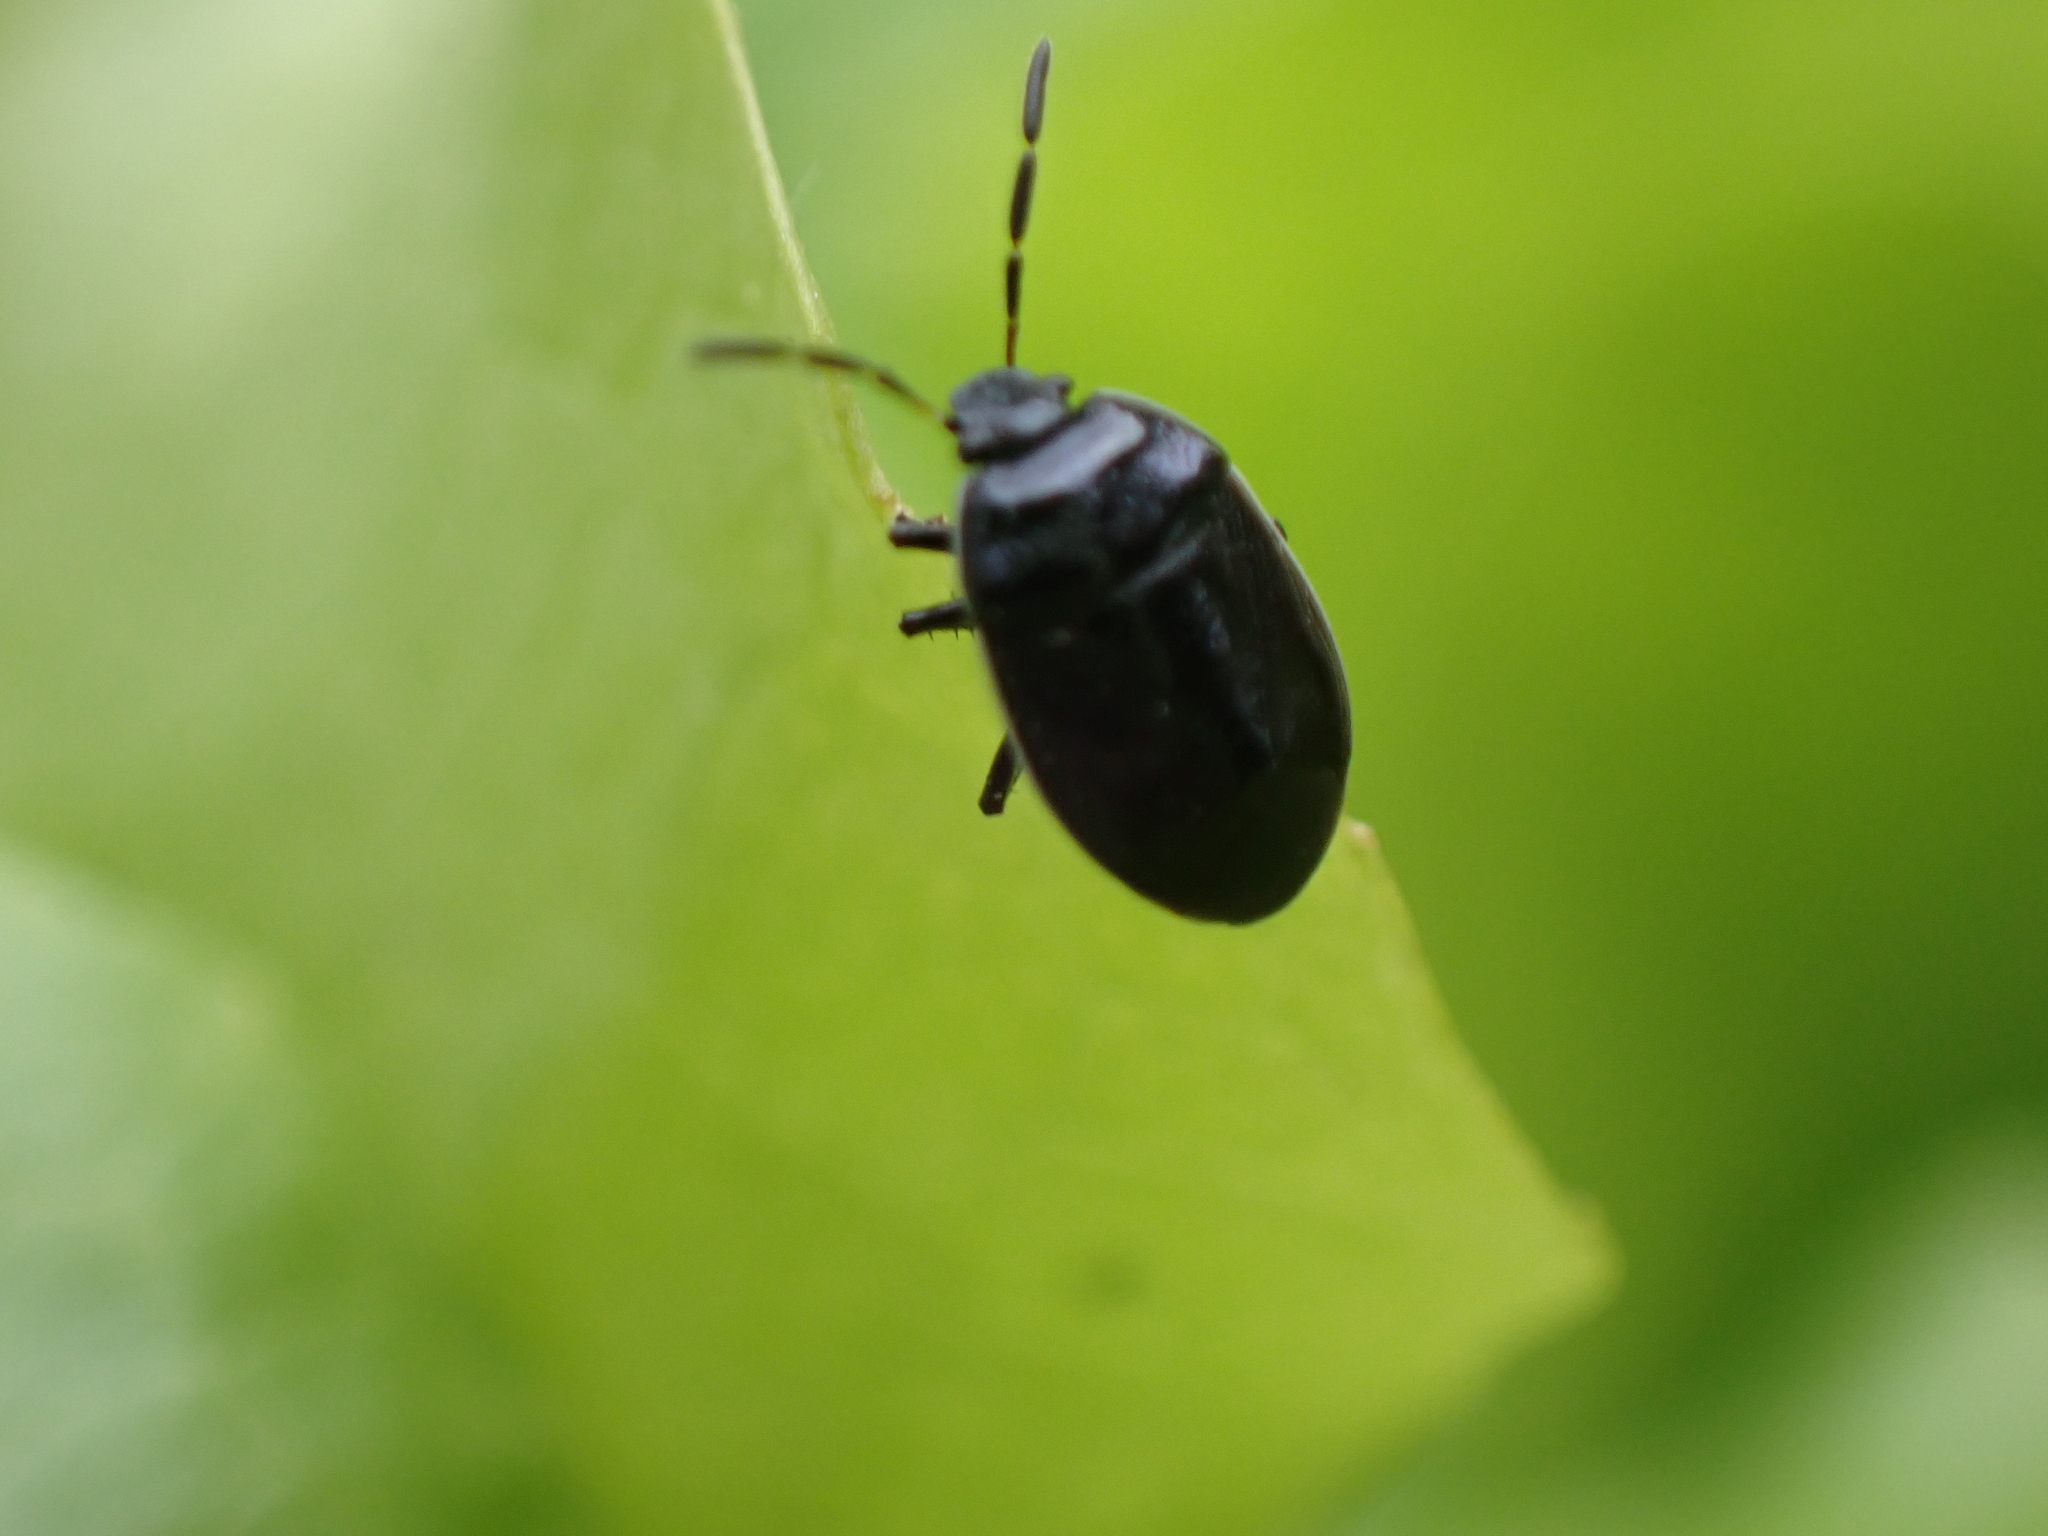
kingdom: Animalia
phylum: Arthropoda
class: Insecta
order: Hemiptera
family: Cydnidae
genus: Sehirus
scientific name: Sehirus cinctus
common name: White-margined burrower bug
